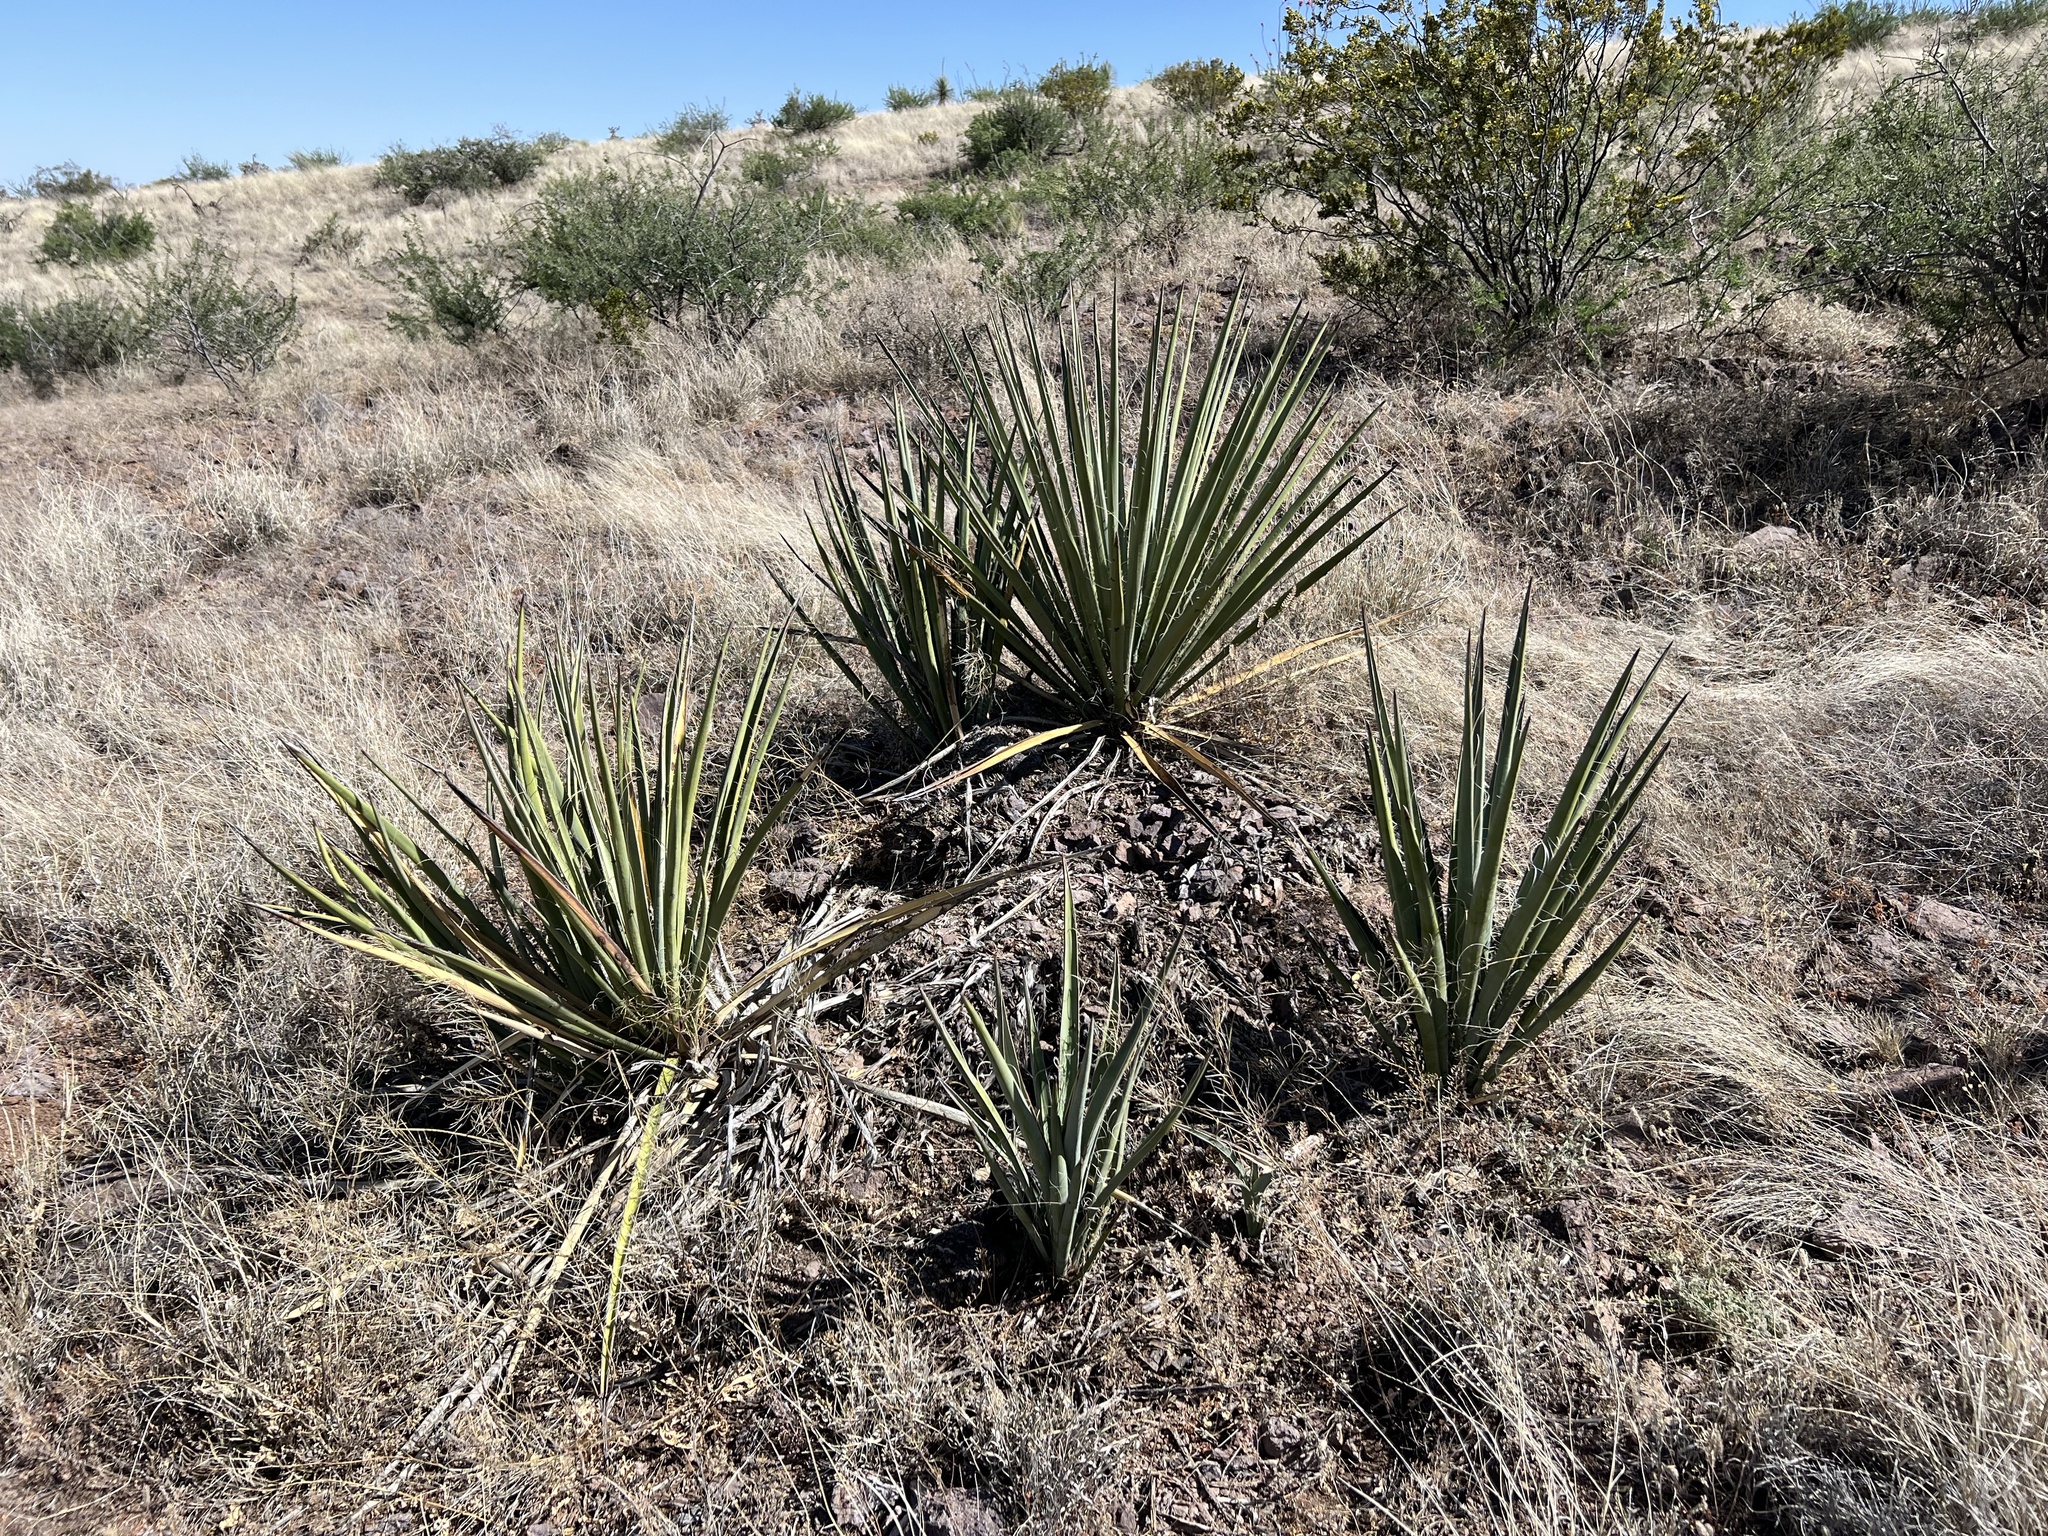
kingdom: Plantae
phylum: Tracheophyta
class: Liliopsida
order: Asparagales
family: Asparagaceae
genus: Yucca
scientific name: Yucca baccata
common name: Banana yucca
